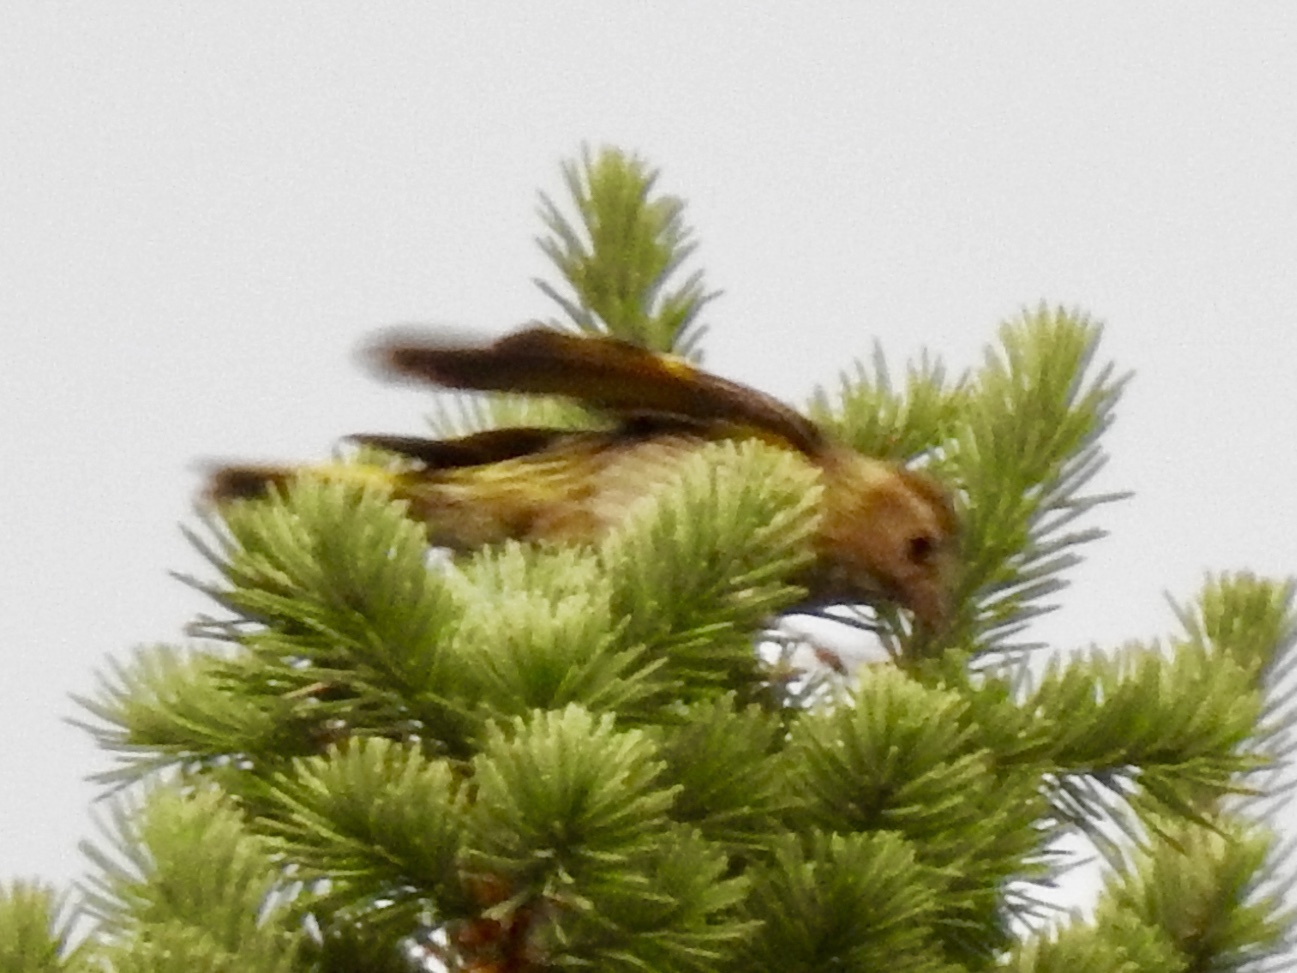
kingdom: Animalia
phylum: Chordata
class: Aves
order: Passeriformes
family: Fringillidae
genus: Spinus
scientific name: Spinus pinus
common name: Pine siskin
